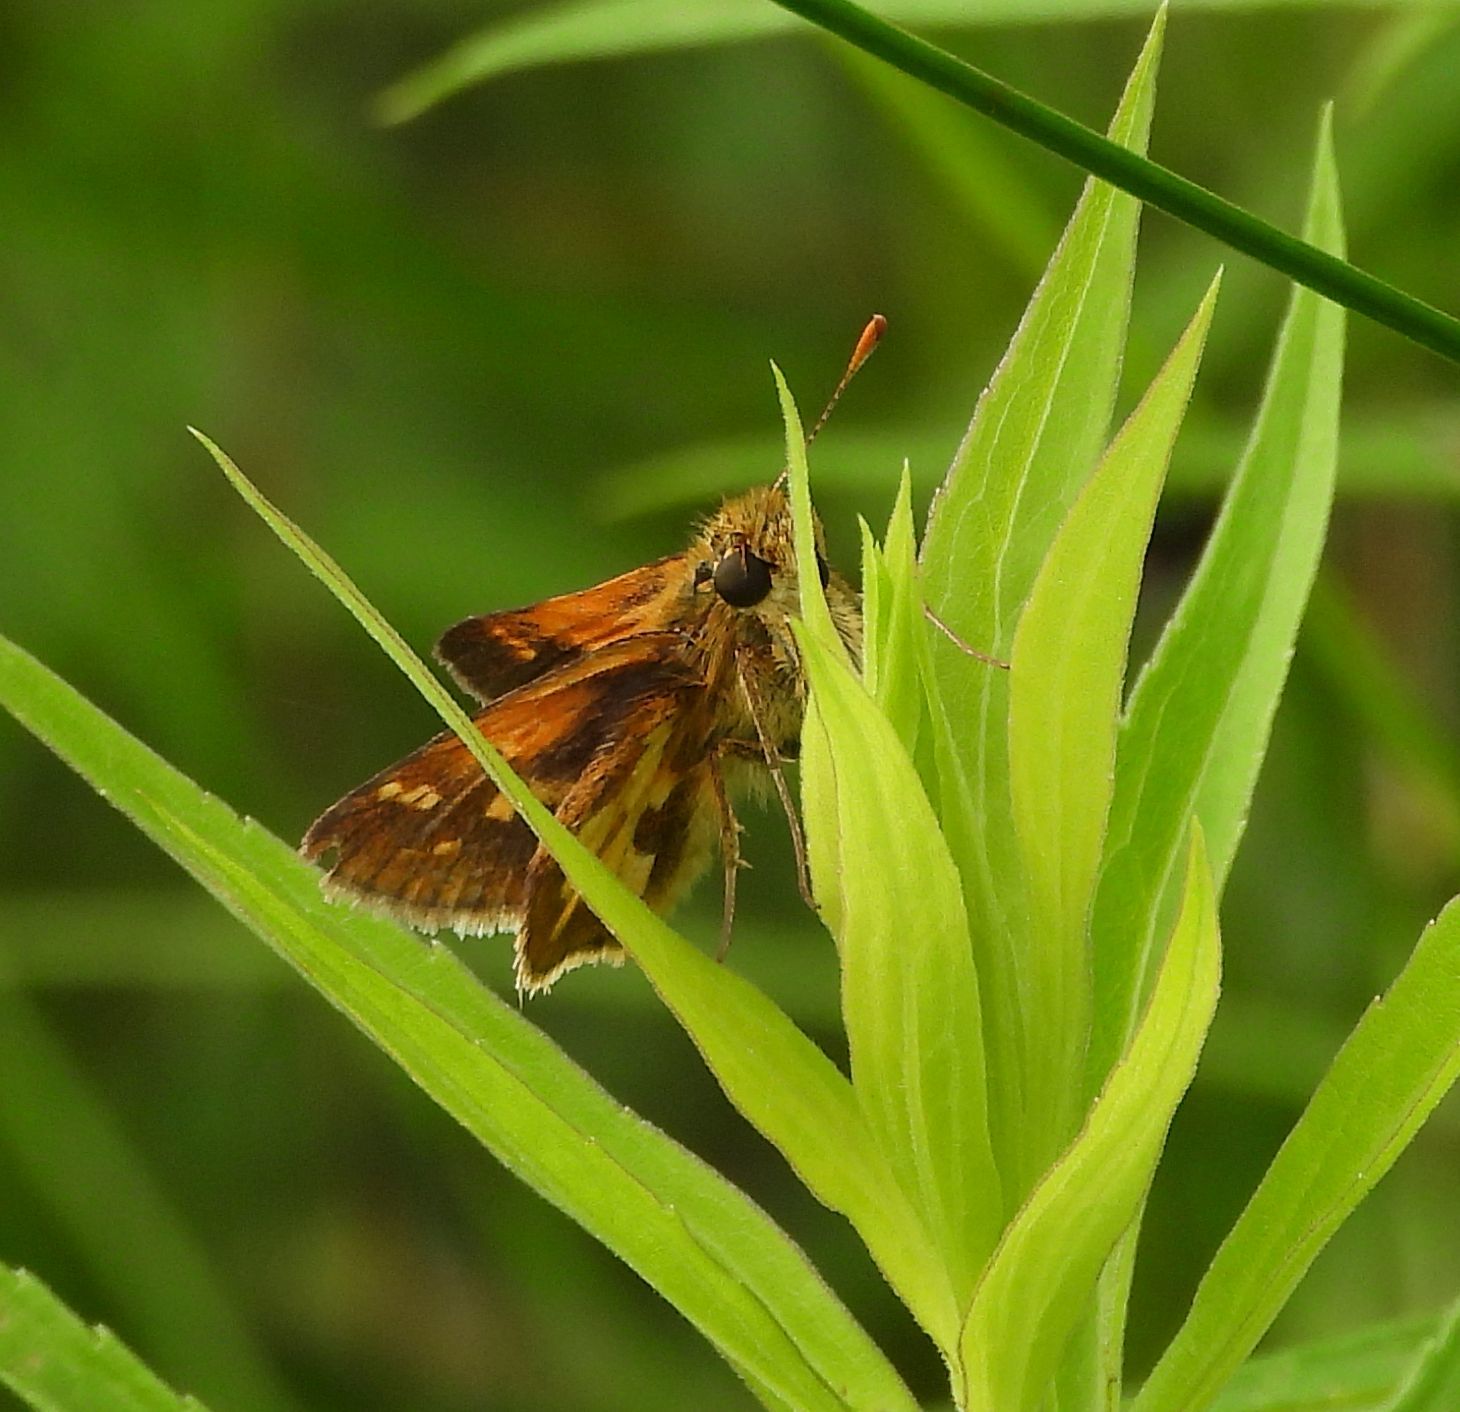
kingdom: Animalia
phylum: Arthropoda
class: Insecta
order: Lepidoptera
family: Hesperiidae
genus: Polites
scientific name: Polites coras
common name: Peck's skipper
